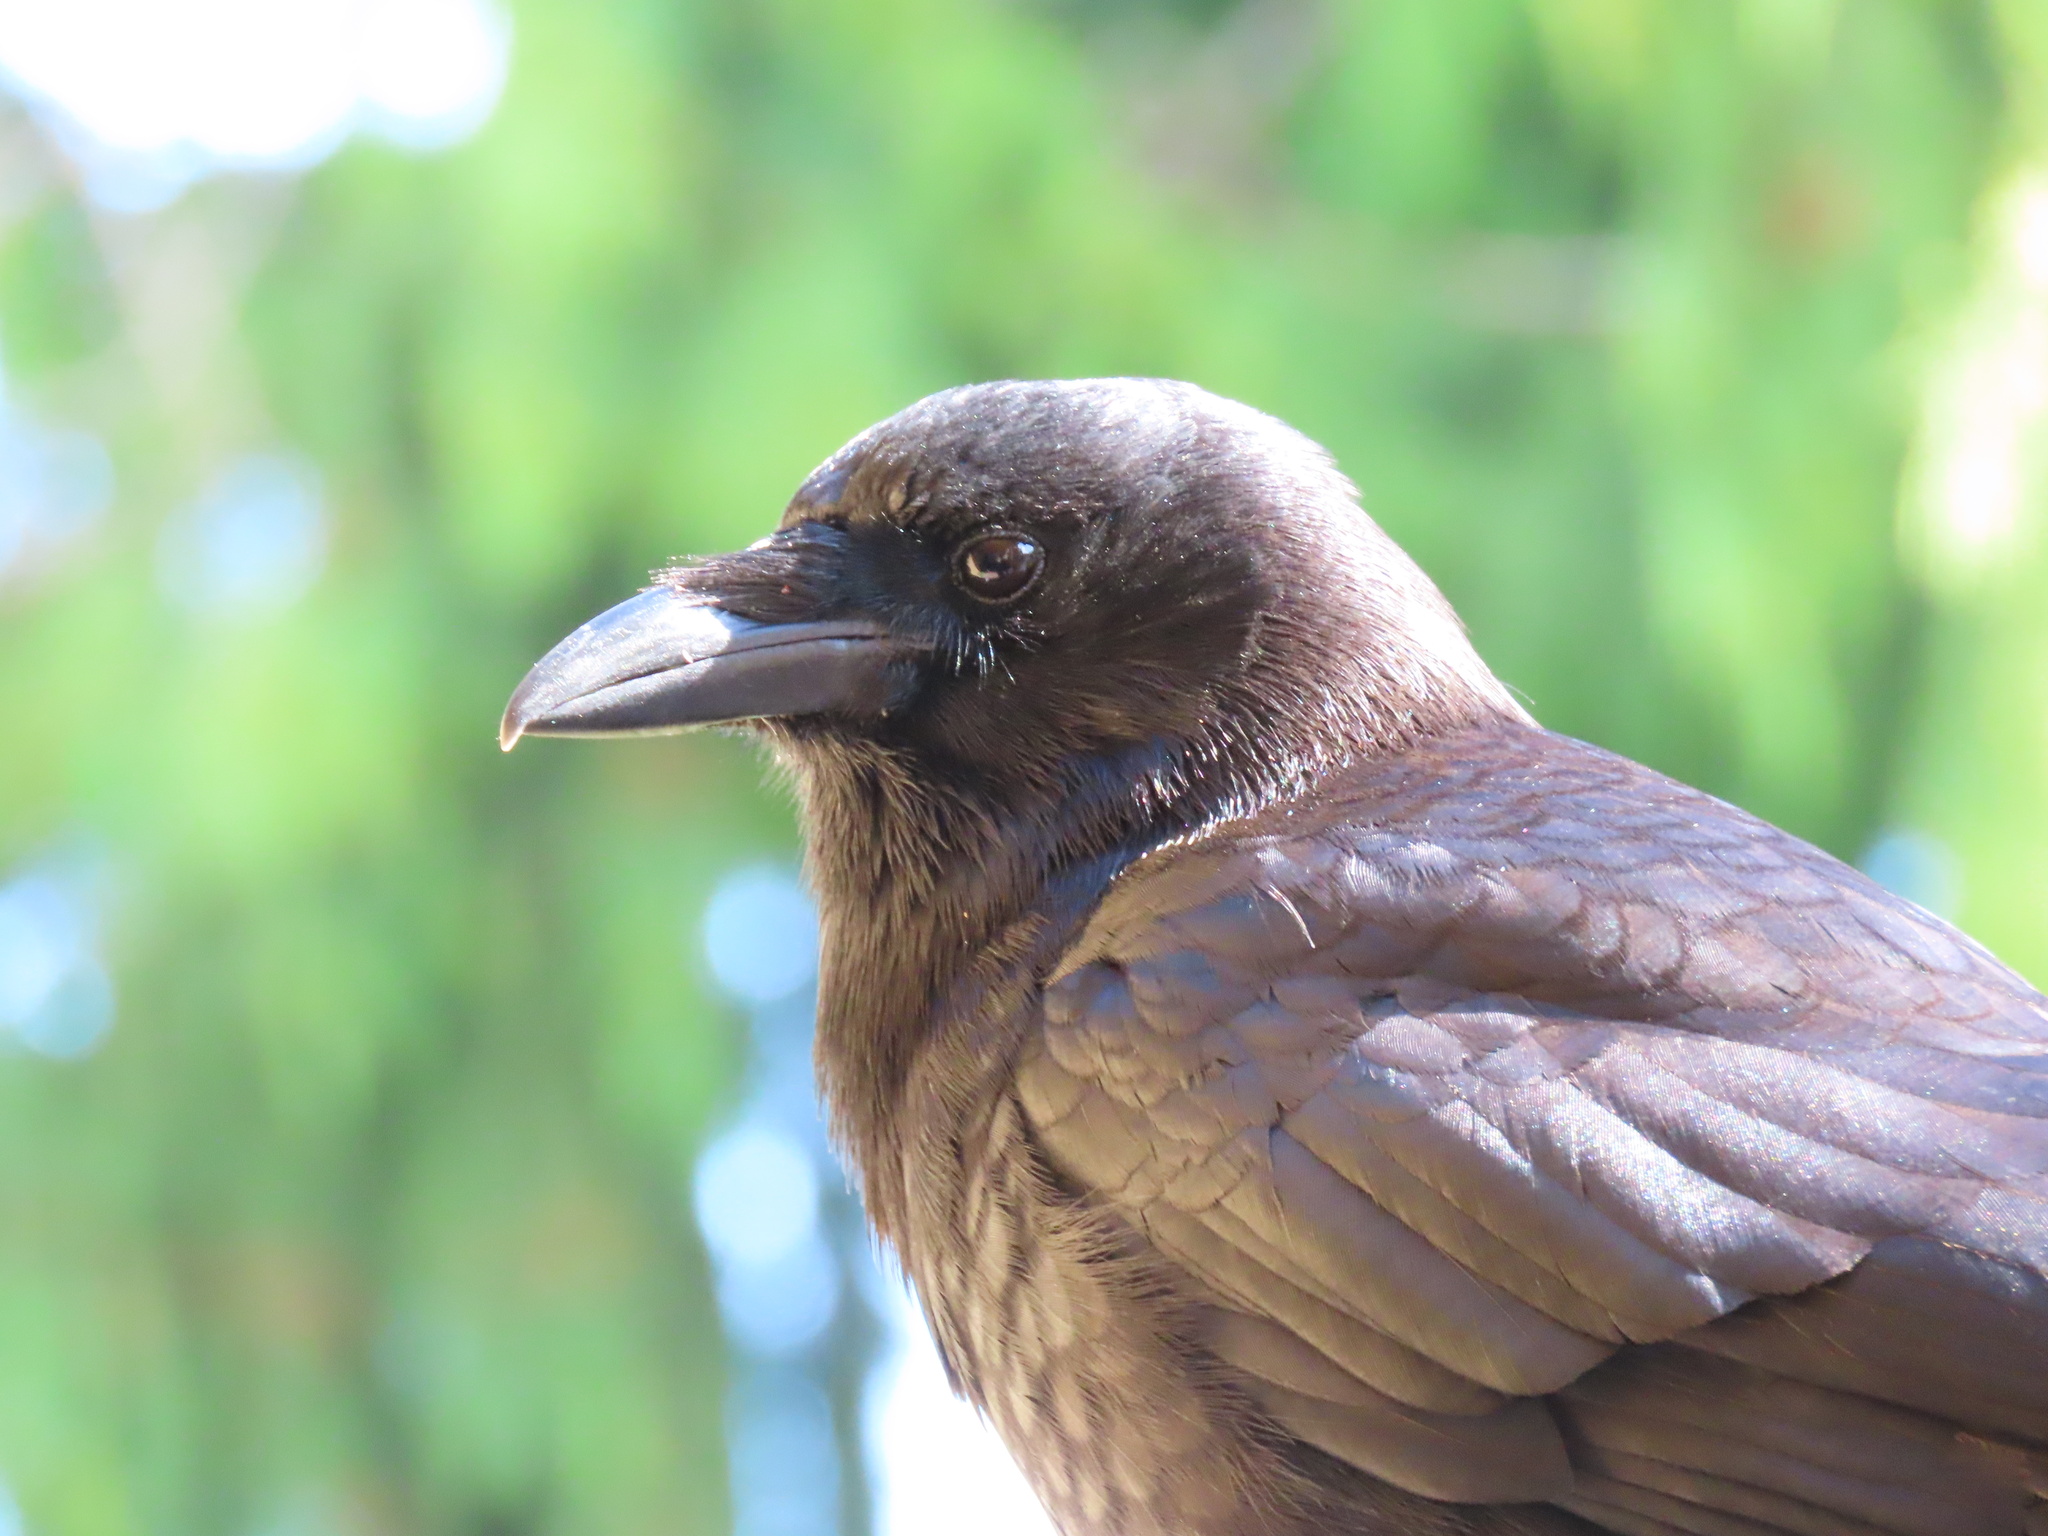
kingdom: Animalia
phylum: Chordata
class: Aves
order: Passeriformes
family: Corvidae
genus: Corvus
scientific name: Corvus brachyrhynchos
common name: American crow
